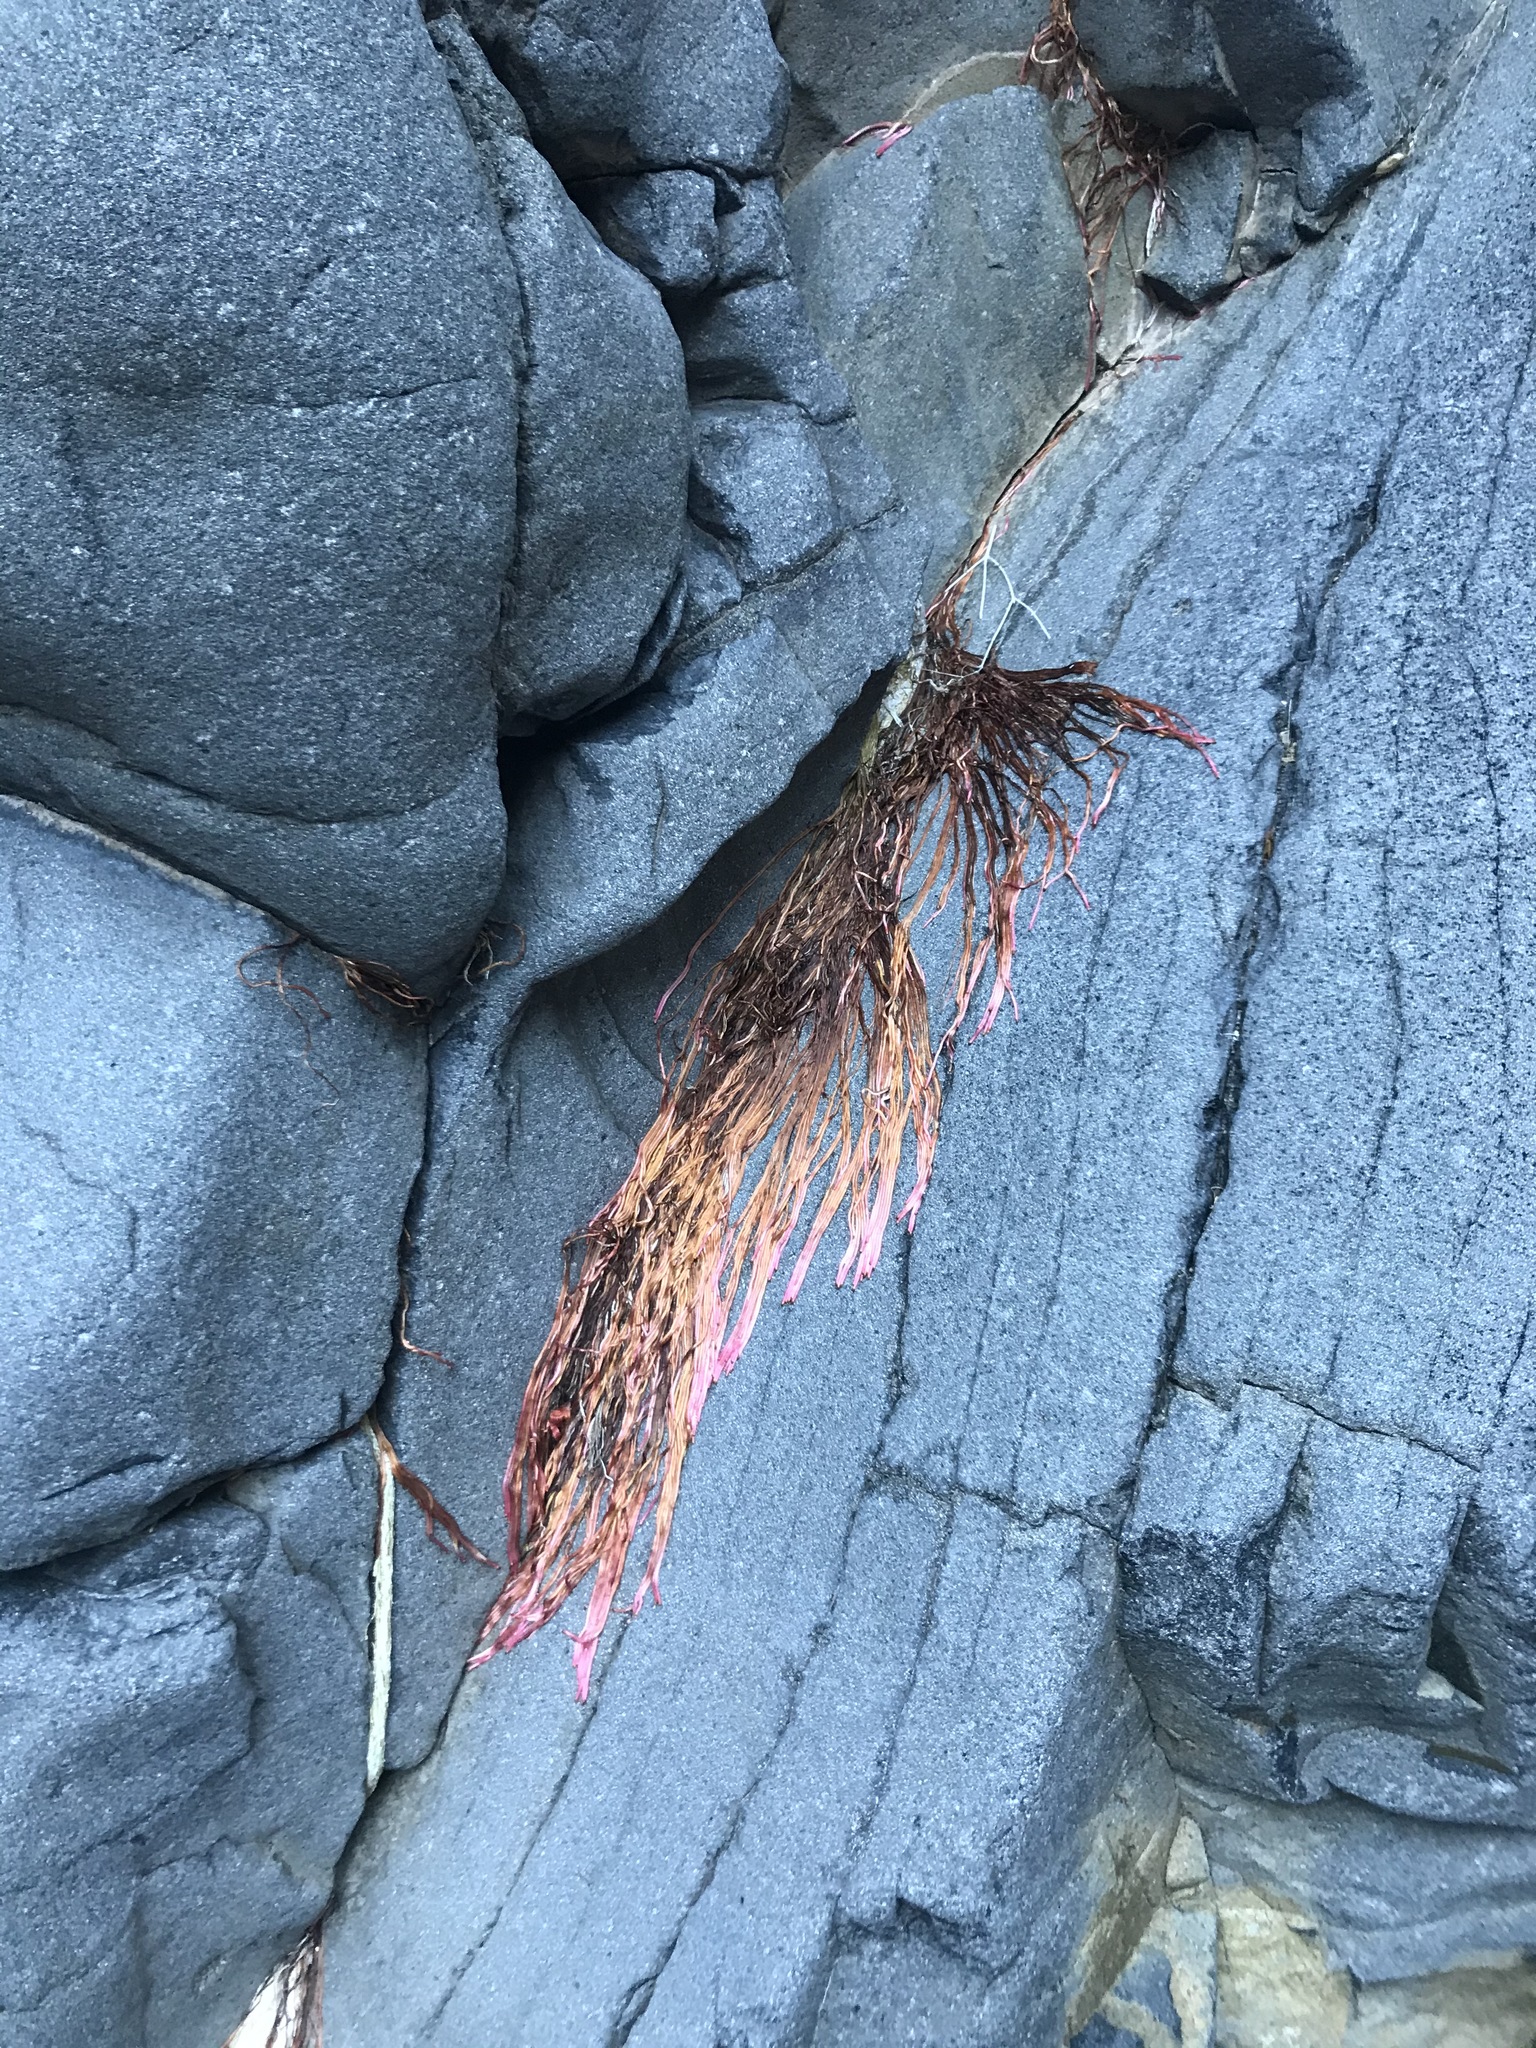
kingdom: Plantae
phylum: Tracheophyta
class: Magnoliopsida
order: Rosales
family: Moraceae
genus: Ficus
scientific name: Ficus petiolaris
